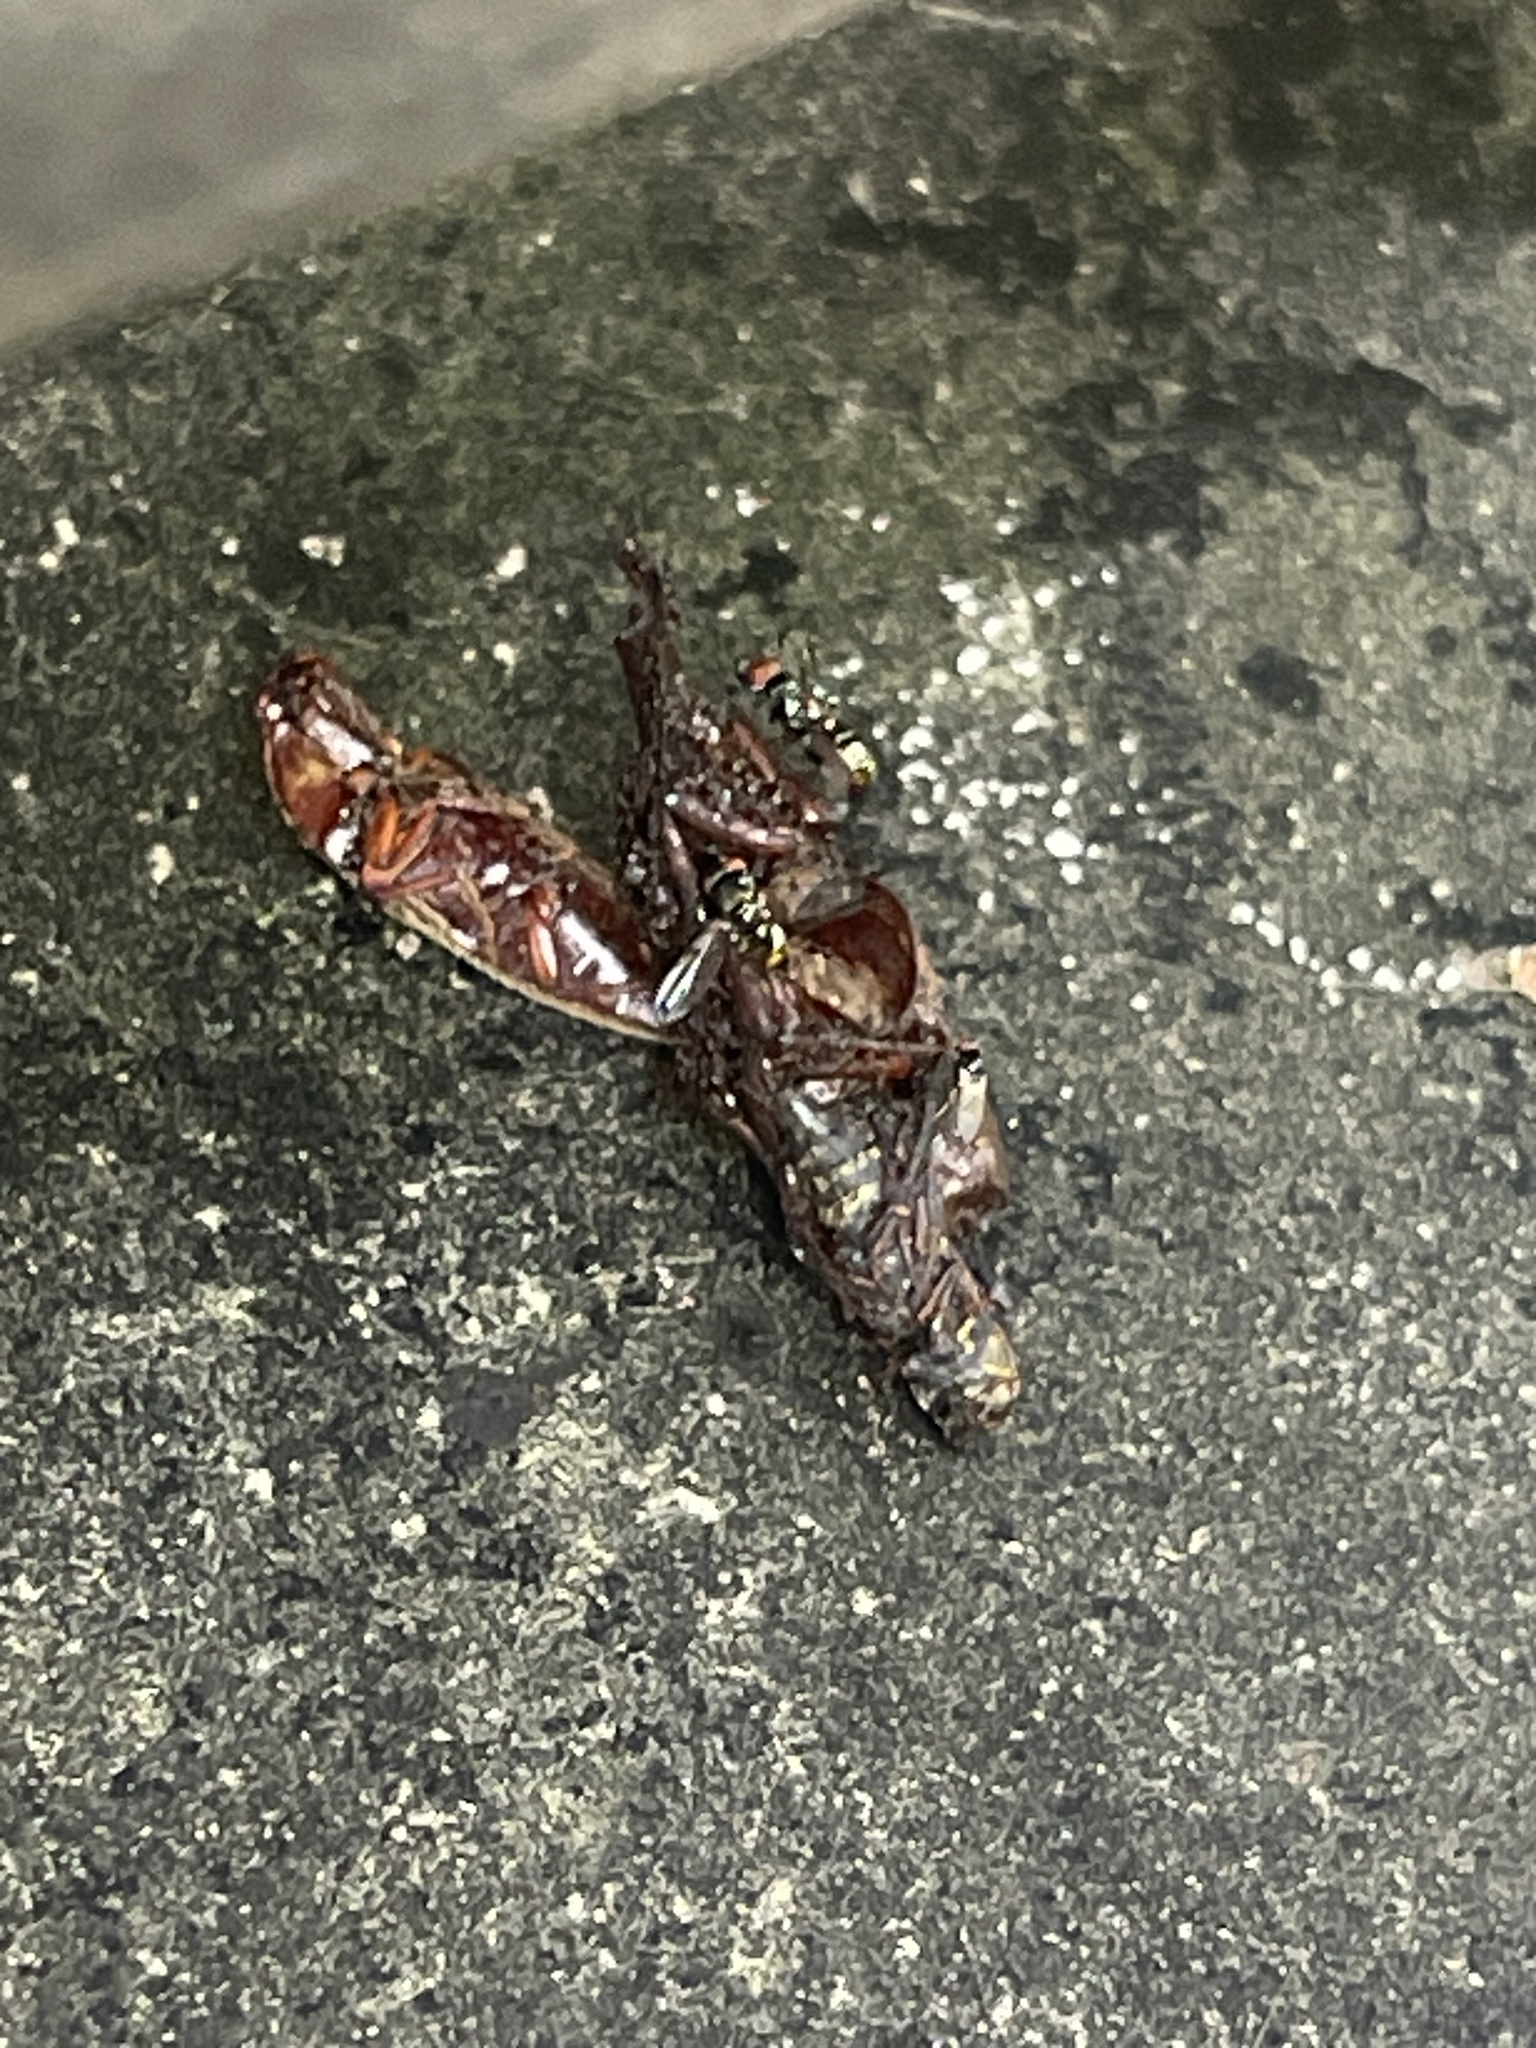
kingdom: Animalia
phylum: Chordata
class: Amphibia
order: Anura
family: Hylidae
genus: Dryophytes
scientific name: Dryophytes gratiosus
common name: Barking treefrog
